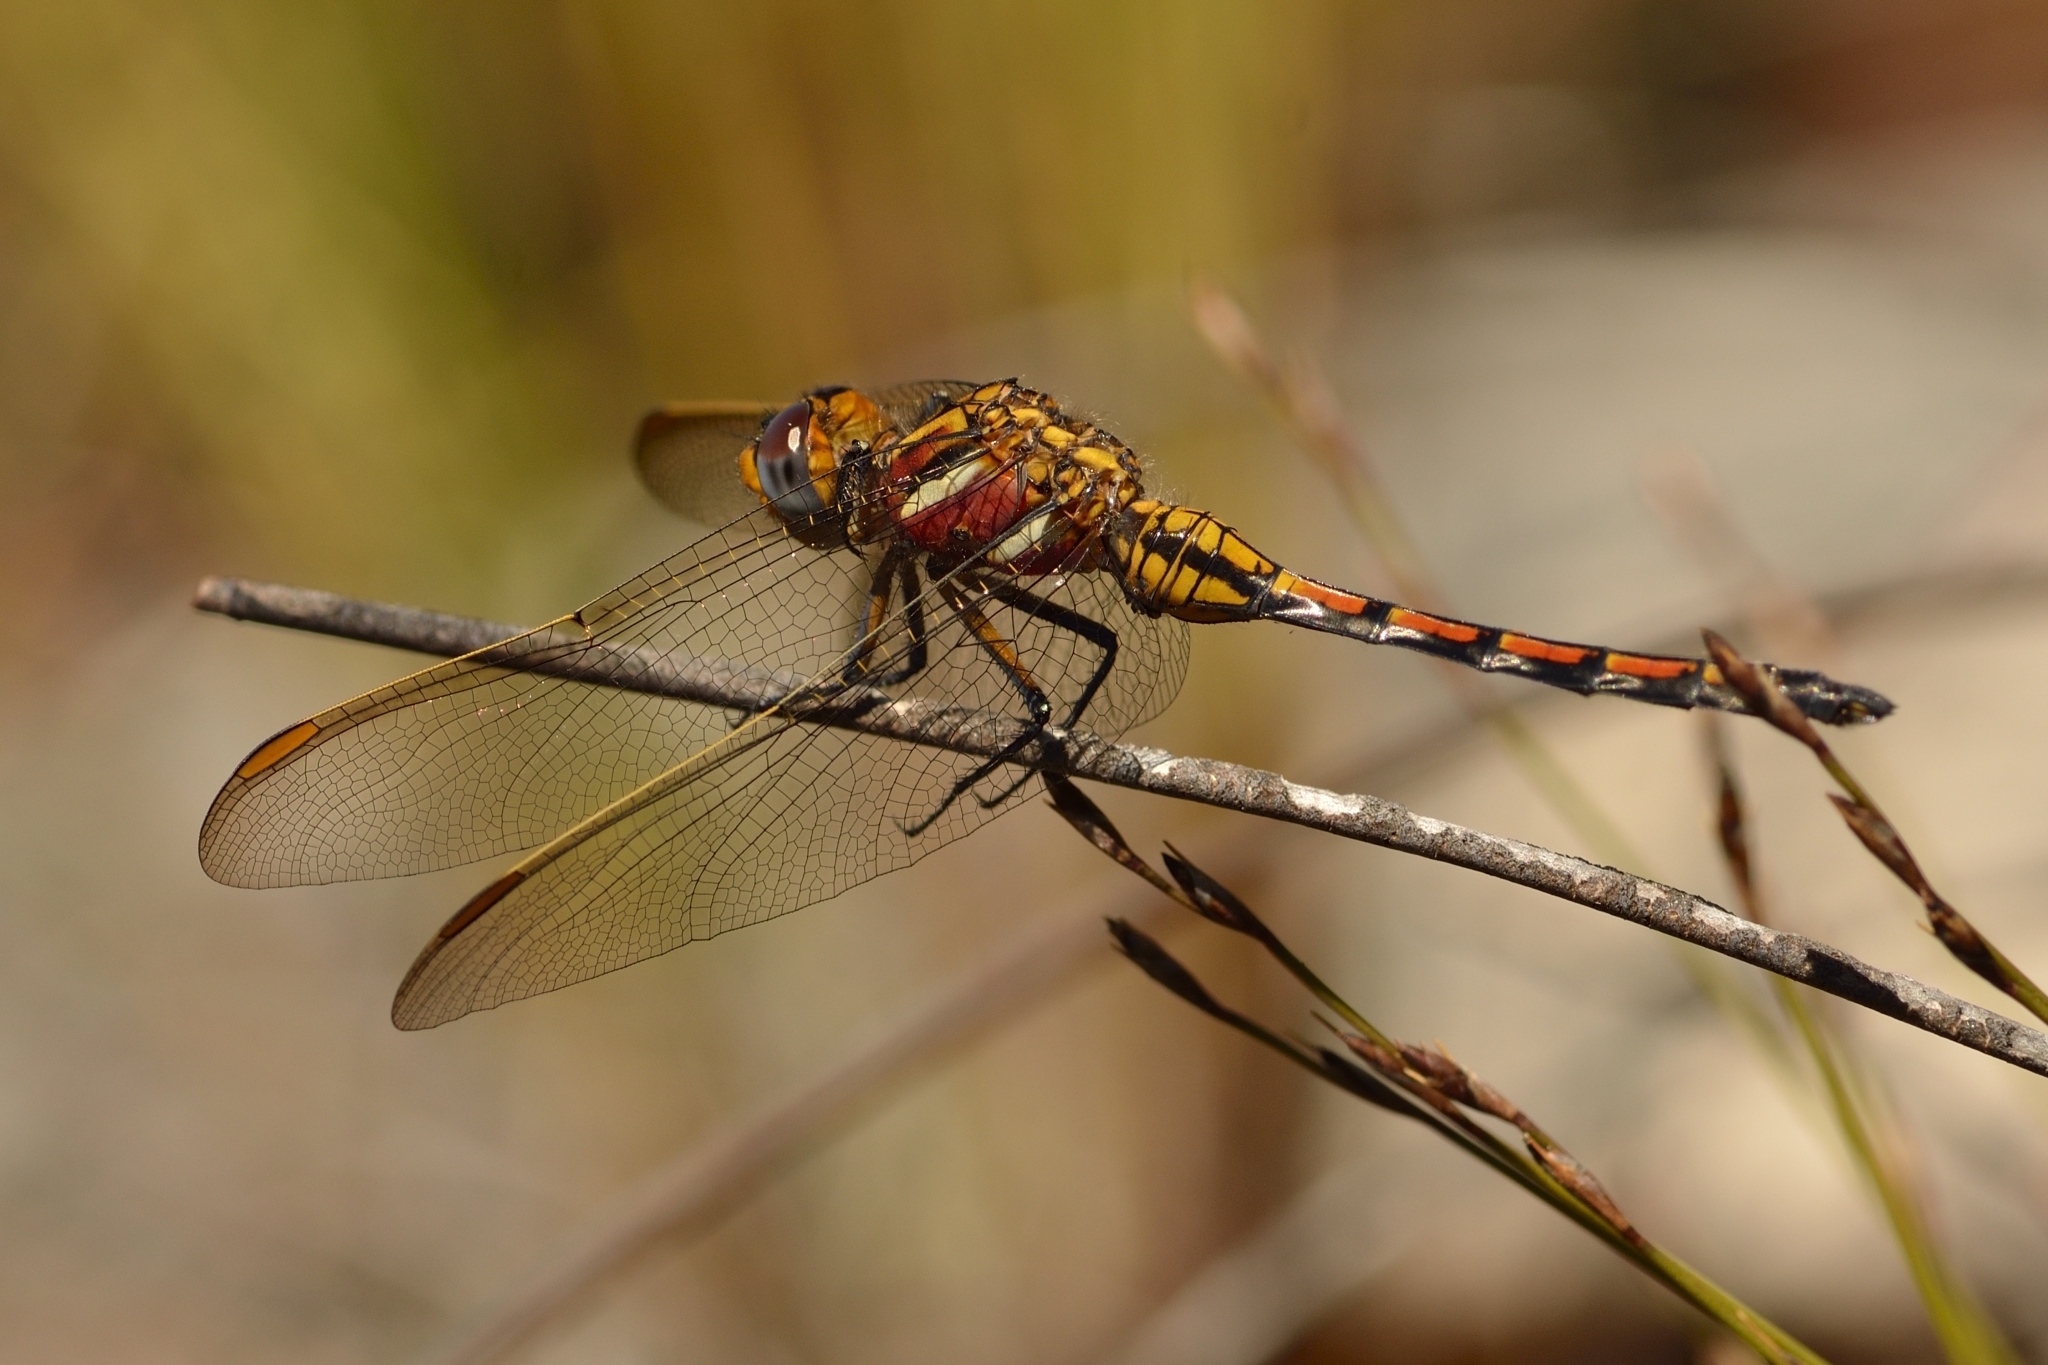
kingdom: Animalia
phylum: Arthropoda
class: Insecta
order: Odonata
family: Libellulidae
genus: Orthetrum
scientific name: Orthetrum rubens
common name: Elusive skimmer
